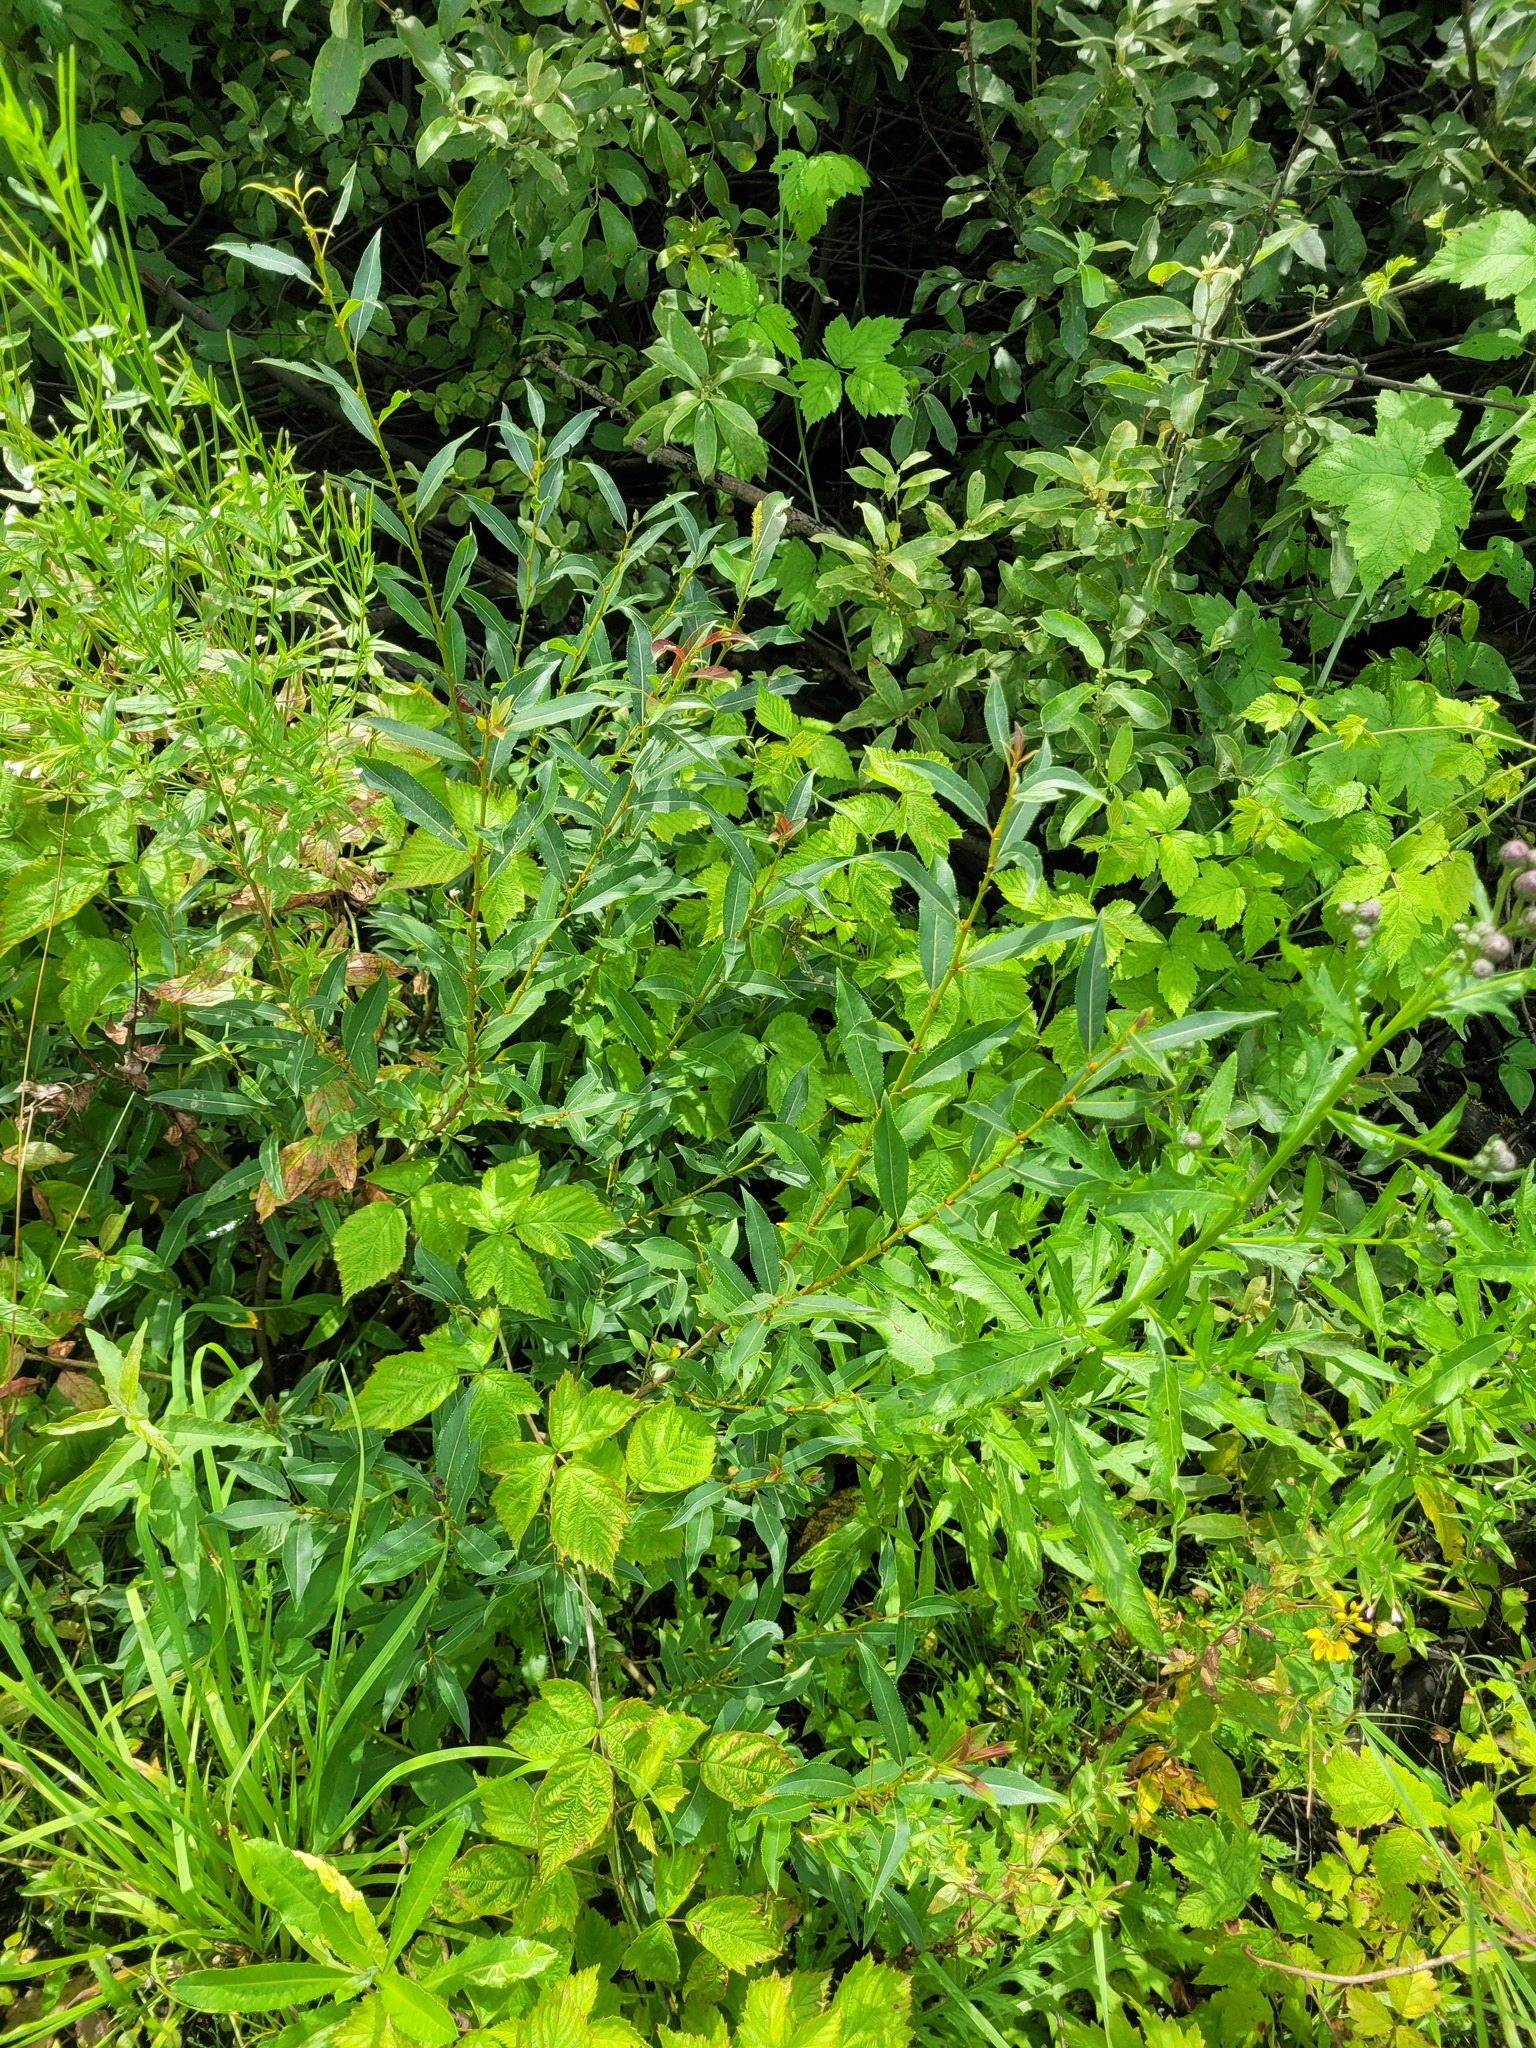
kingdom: Plantae
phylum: Tracheophyta
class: Magnoliopsida
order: Malpighiales
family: Salicaceae
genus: Salix
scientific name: Salix triandra
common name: Almond willow
